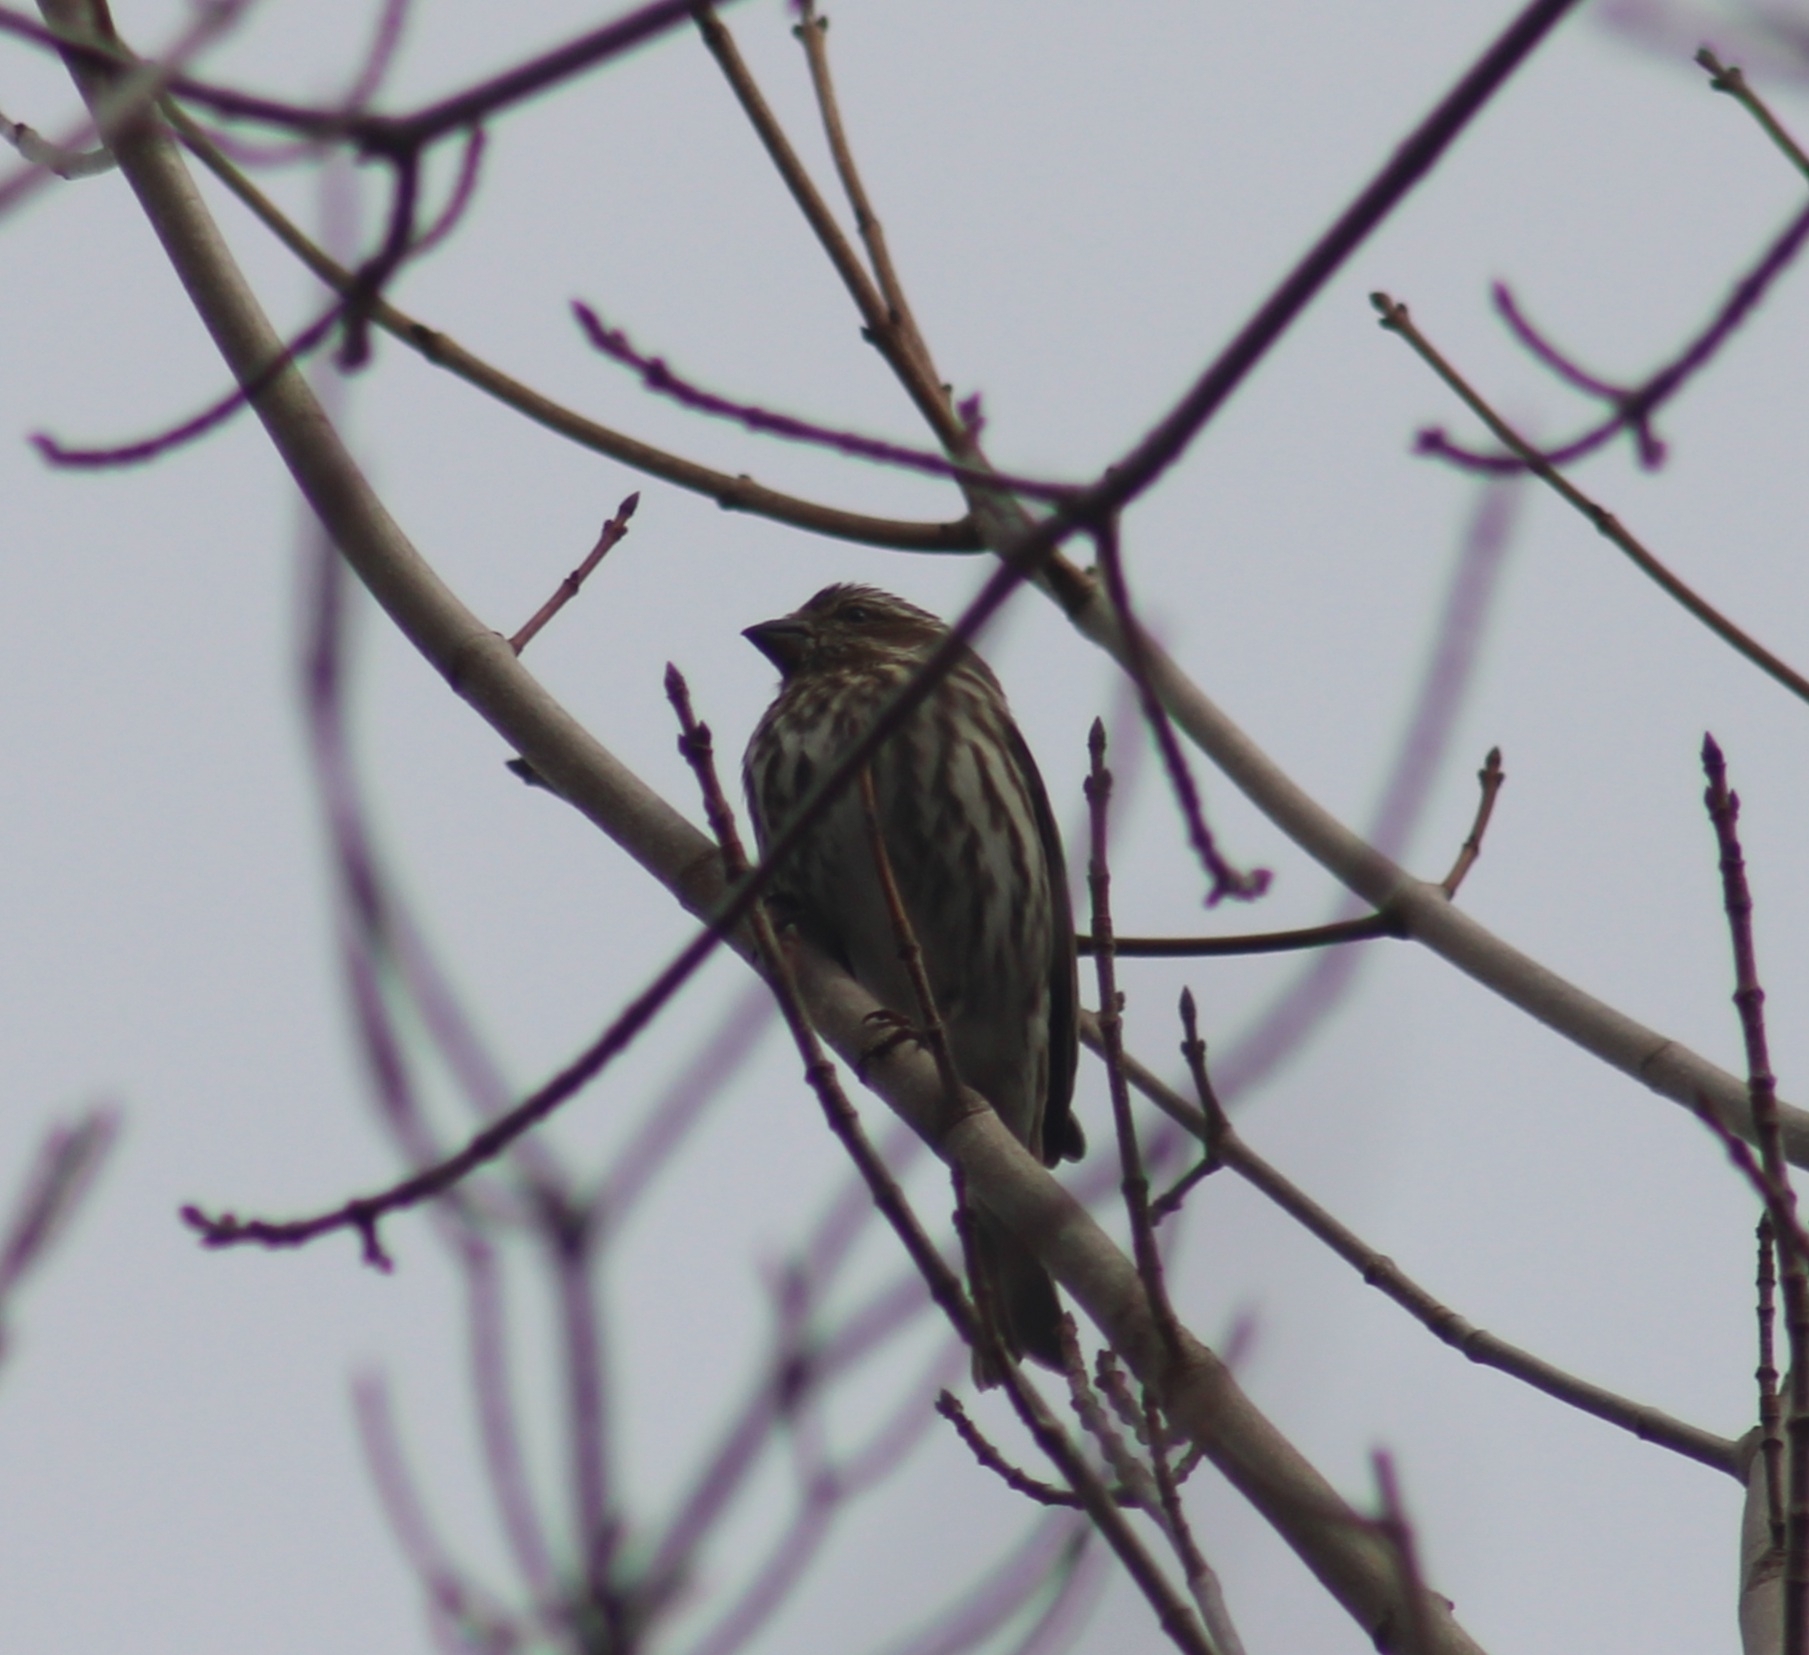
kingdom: Animalia
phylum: Chordata
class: Aves
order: Passeriformes
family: Fringillidae
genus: Haemorhous
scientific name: Haemorhous purpureus
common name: Purple finch
